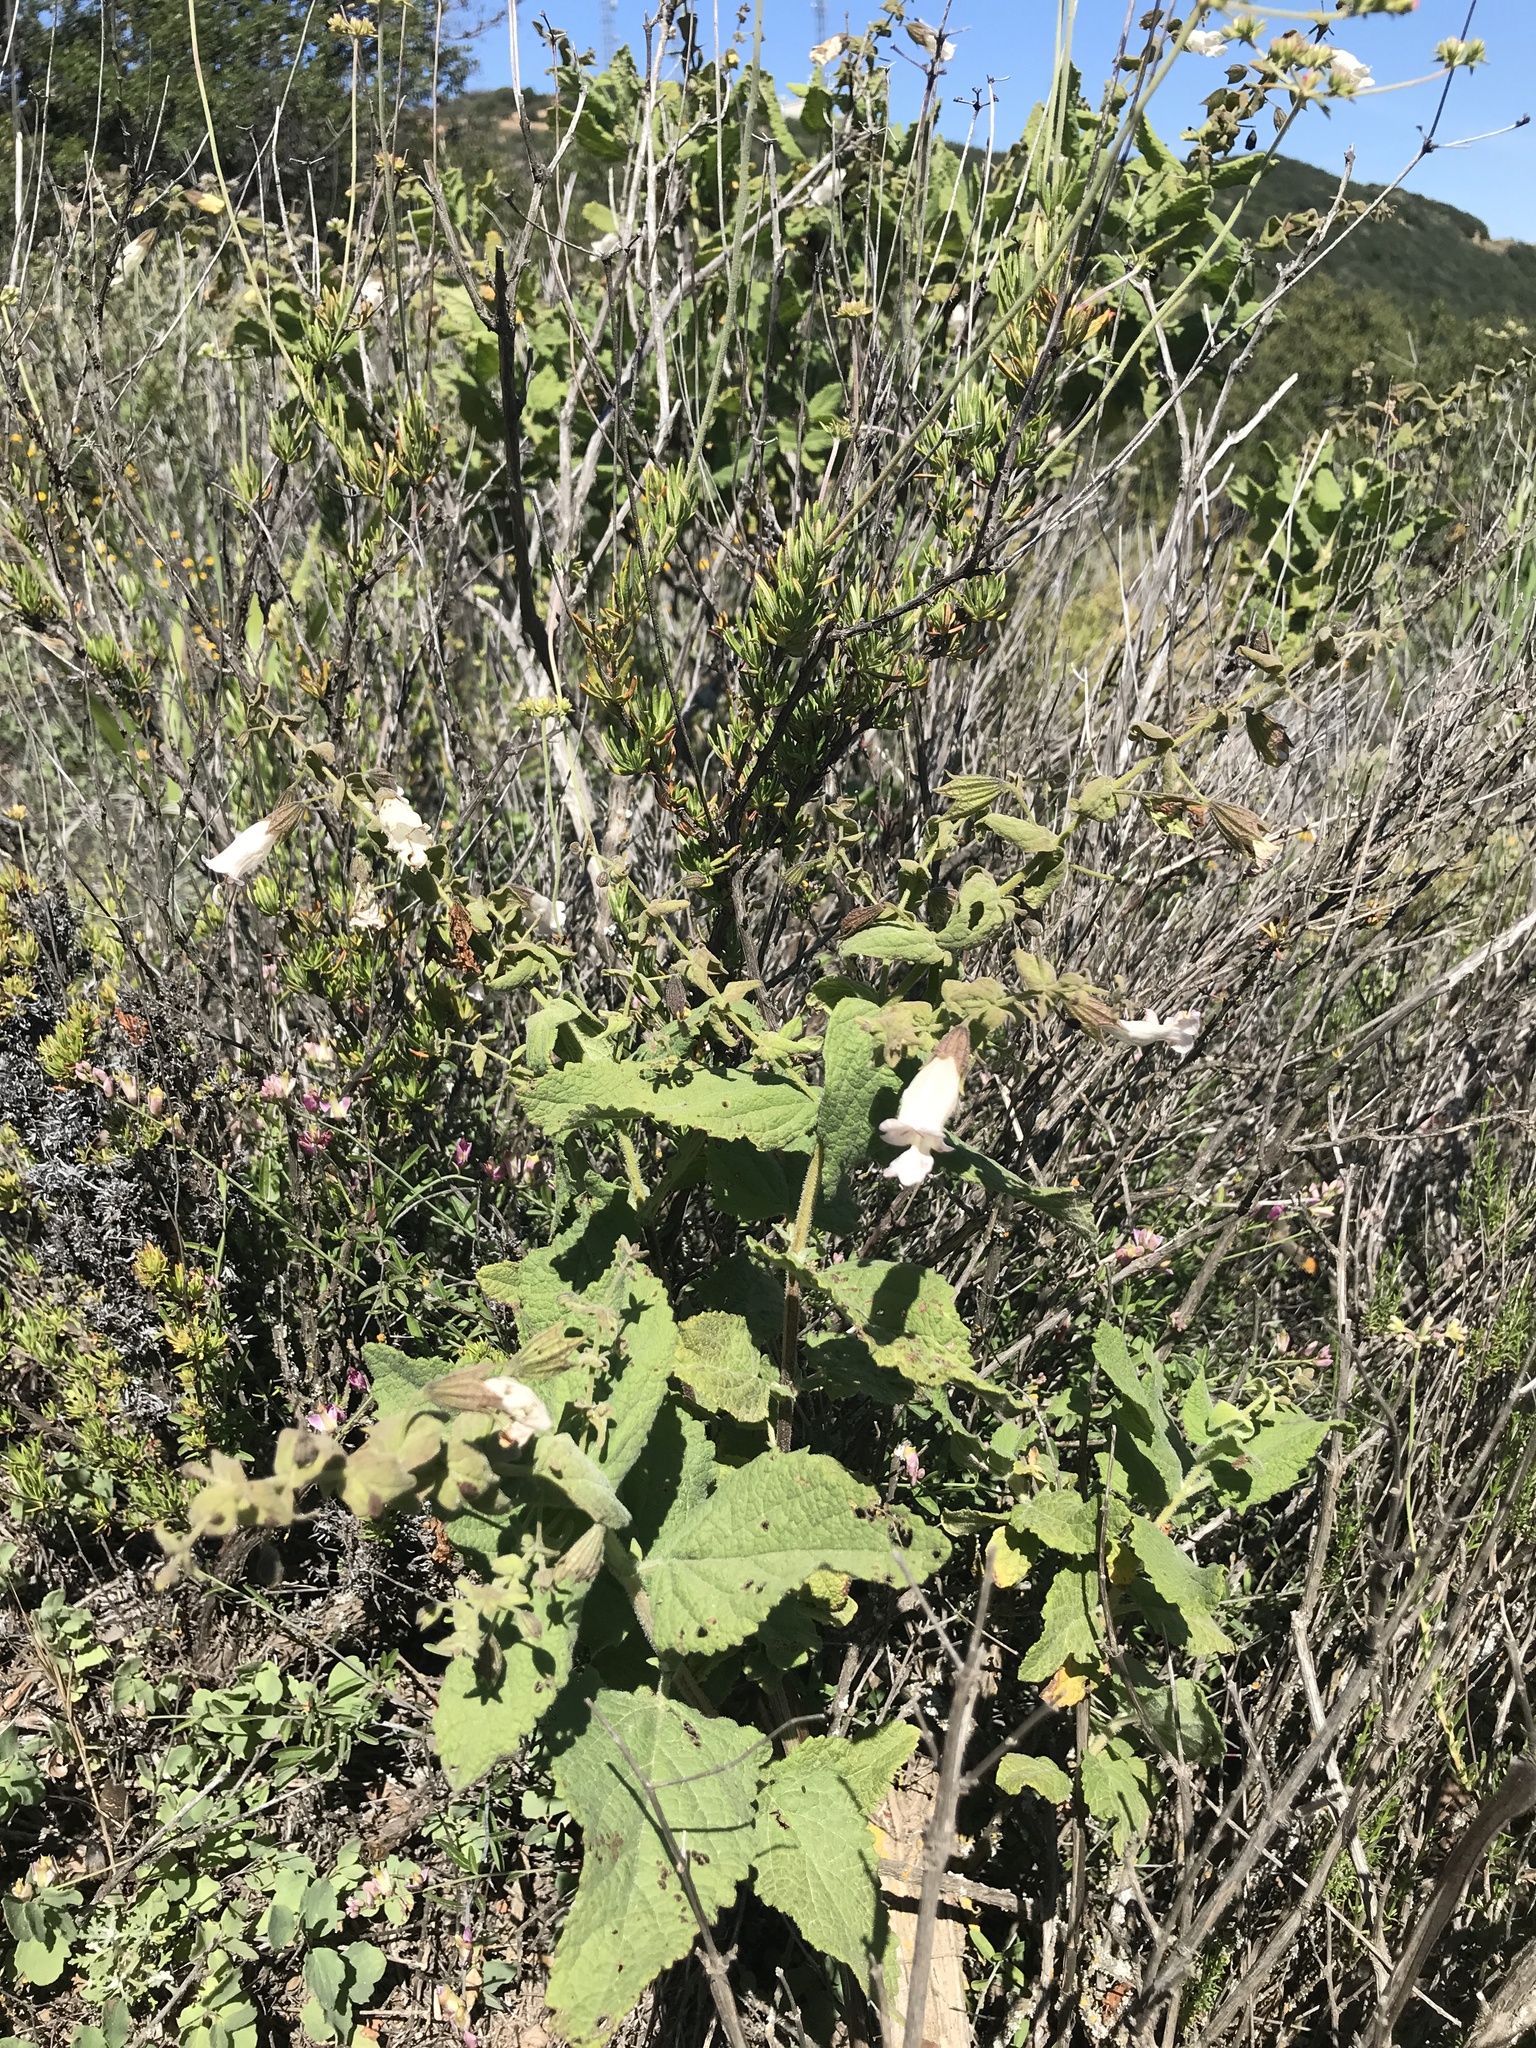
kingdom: Plantae
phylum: Tracheophyta
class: Magnoliopsida
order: Lamiales
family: Lamiaceae
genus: Lepechinia
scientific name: Lepechinia cardiophylla
